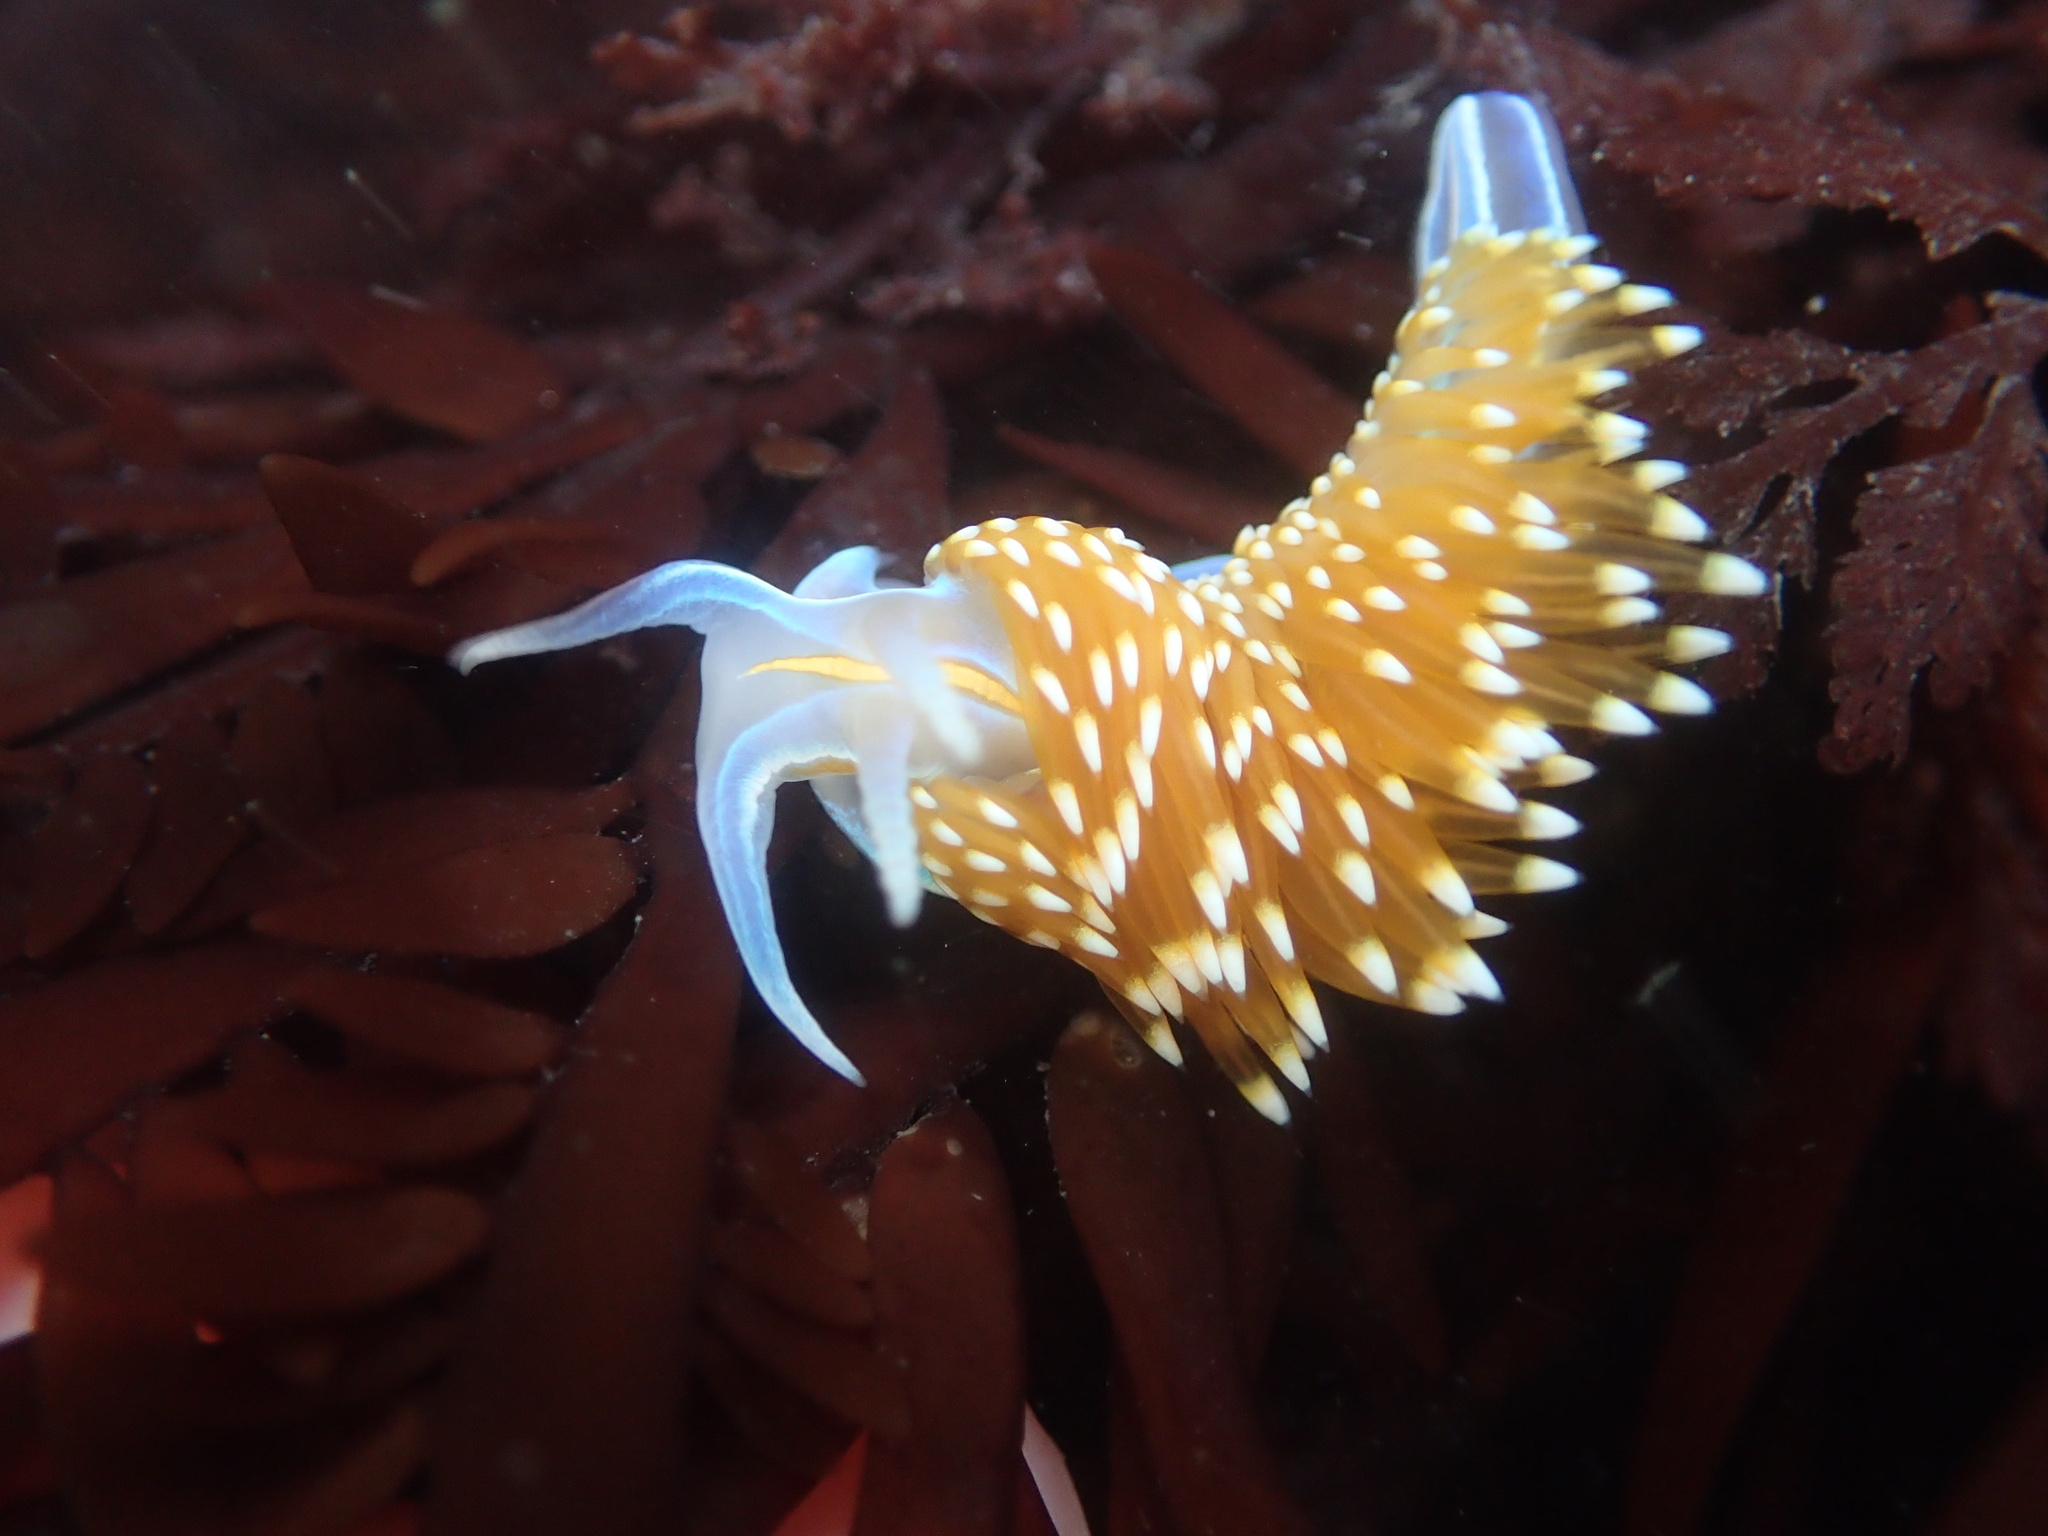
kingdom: Animalia
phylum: Mollusca
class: Gastropoda
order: Nudibranchia
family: Myrrhinidae
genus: Hermissenda
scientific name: Hermissenda opalescens
